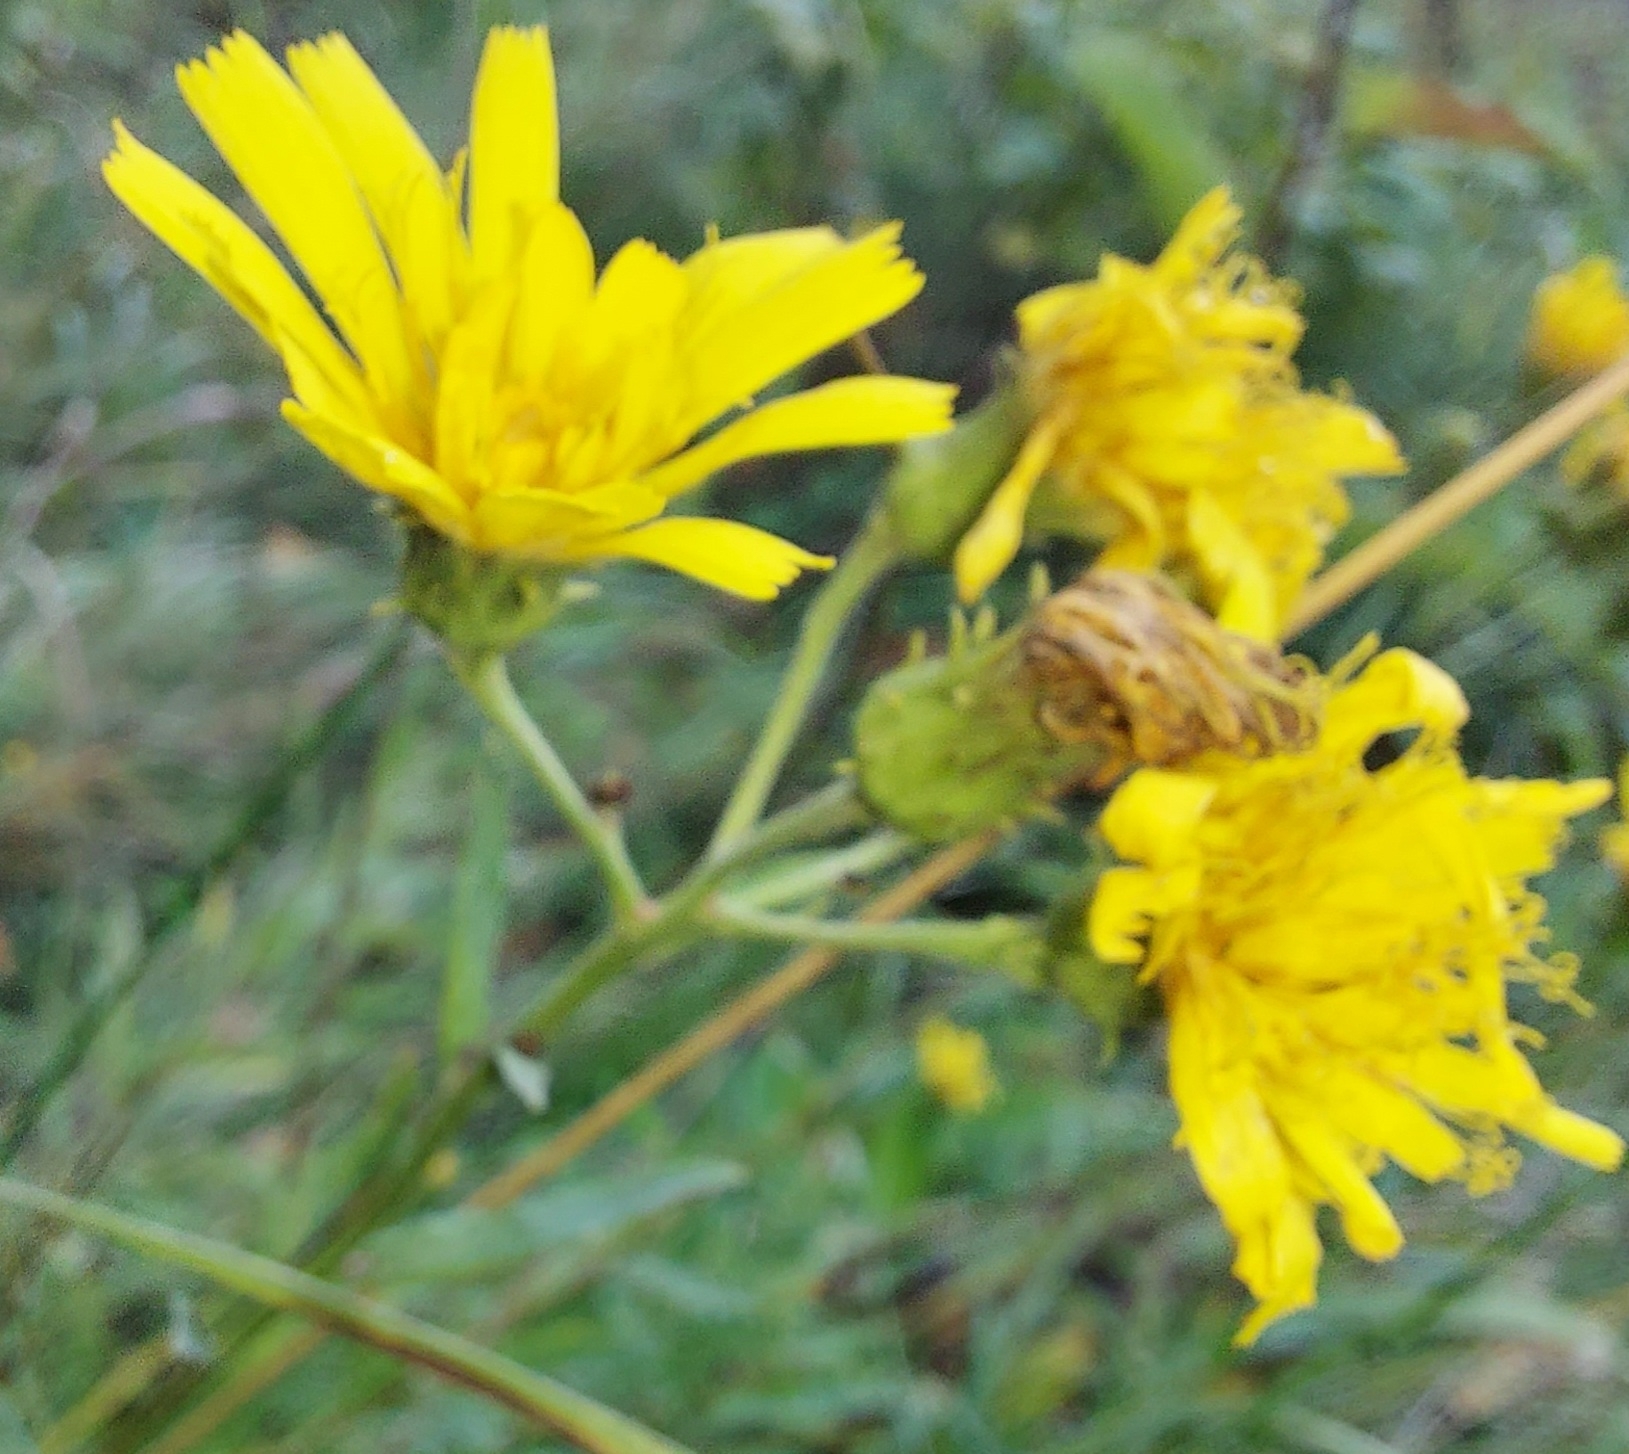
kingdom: Plantae
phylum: Tracheophyta
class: Magnoliopsida
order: Asterales
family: Asteraceae
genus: Hieracium
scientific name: Hieracium umbellatum
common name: Northern hawkweed
